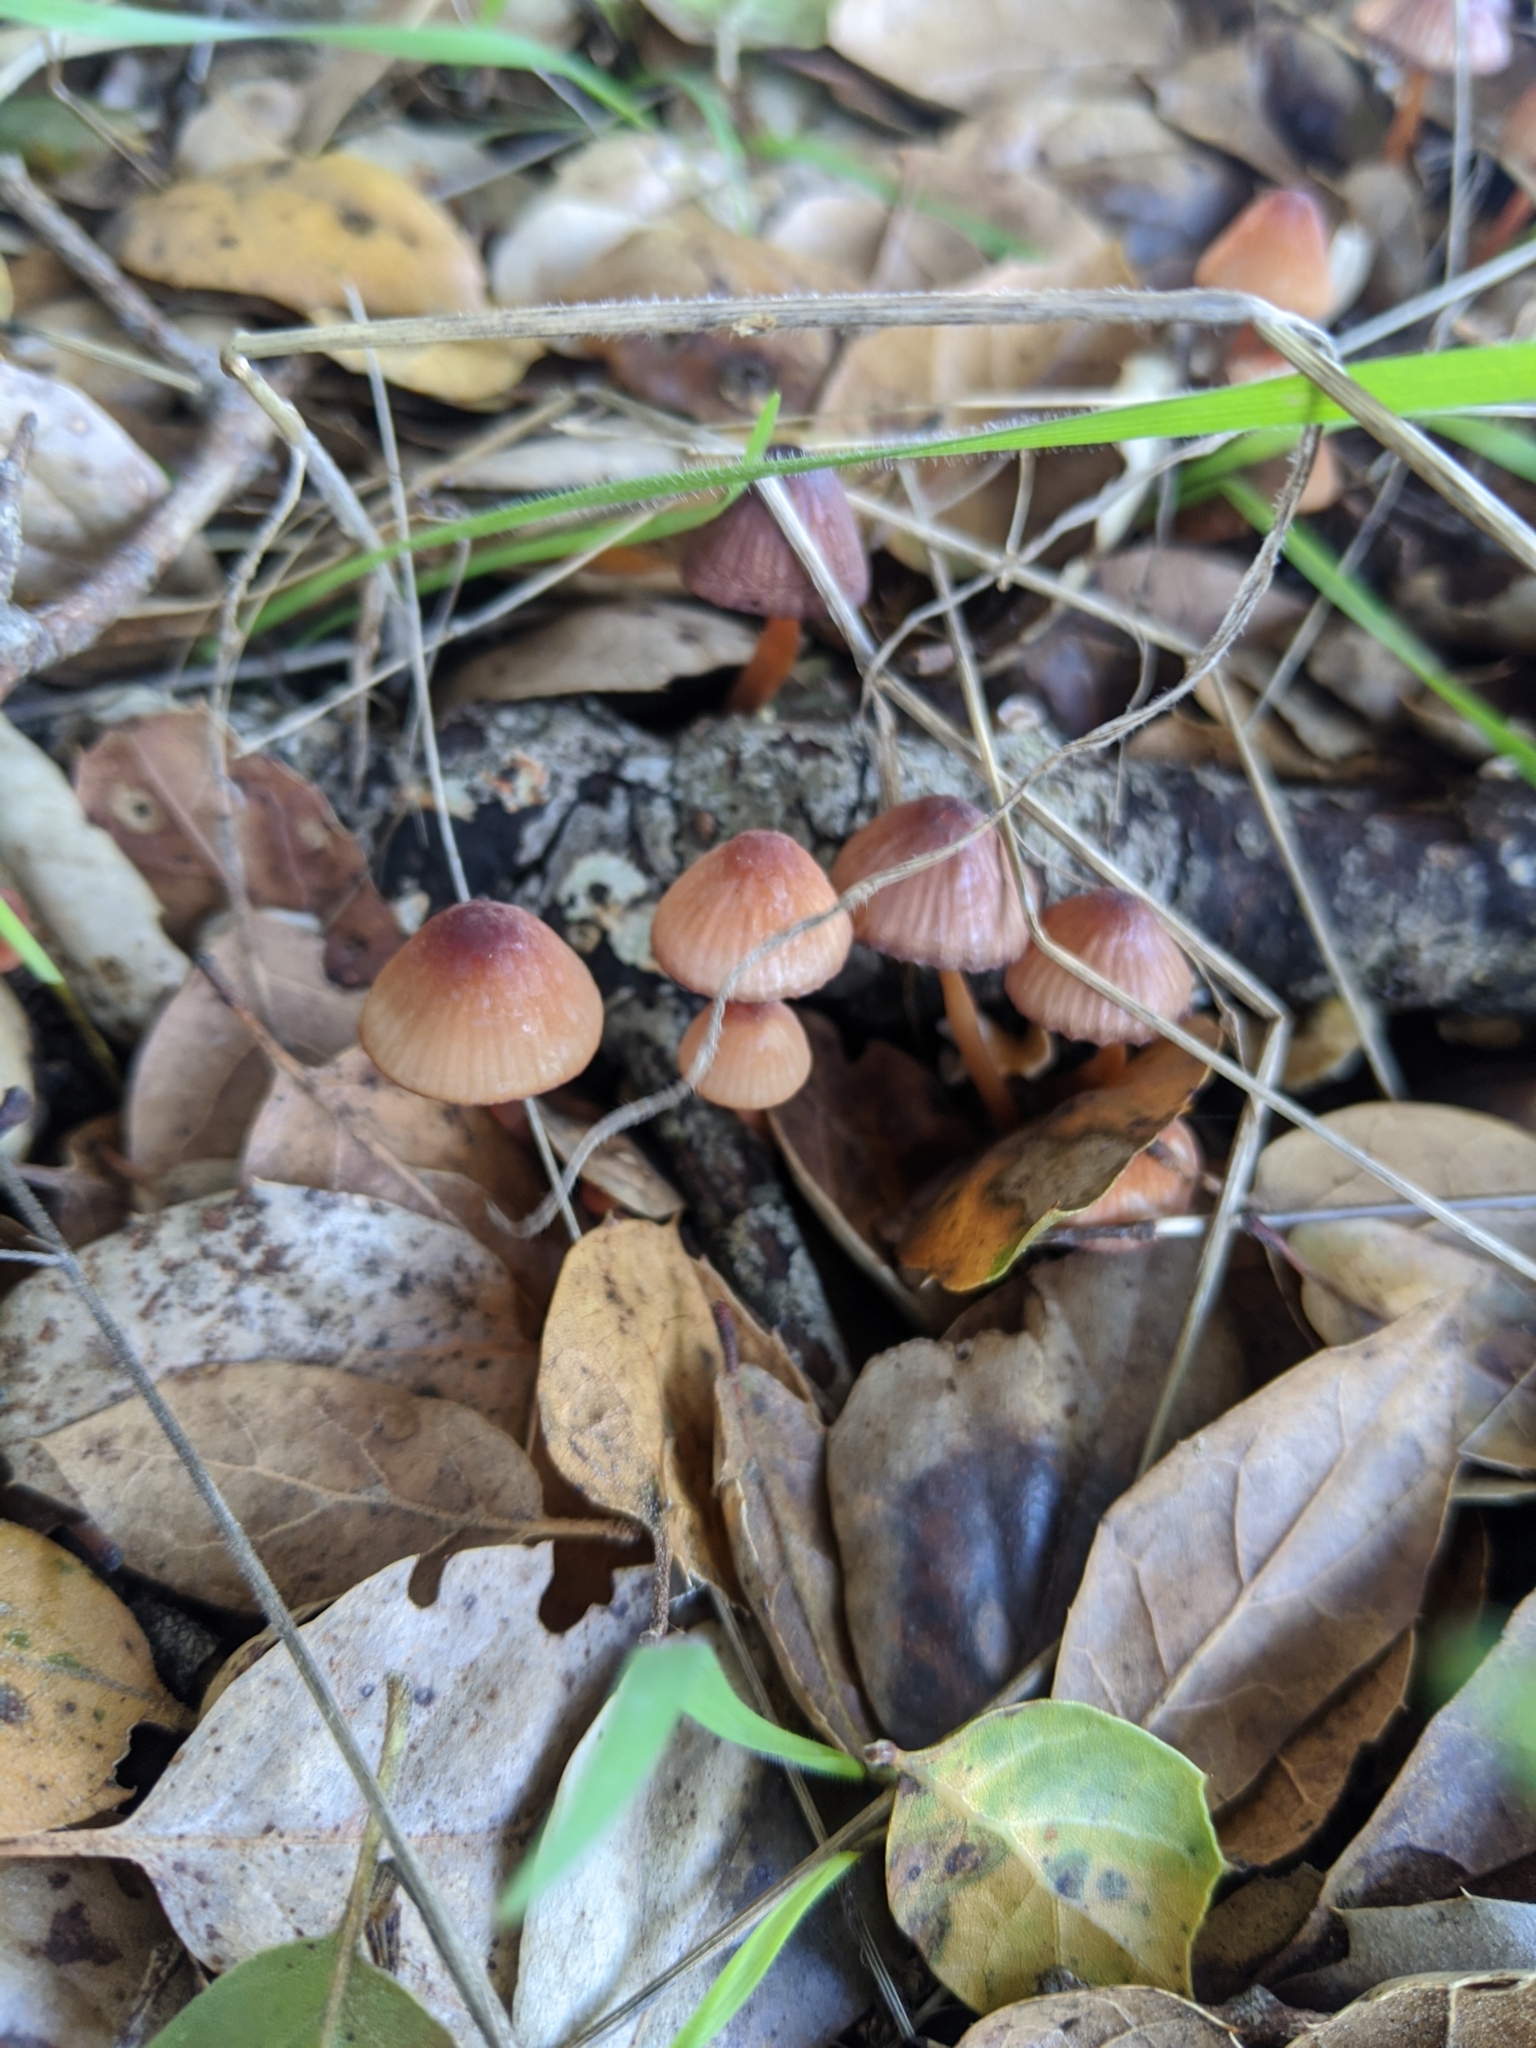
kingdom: Fungi
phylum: Basidiomycota
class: Agaricomycetes
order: Agaricales
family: Mycenaceae
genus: Mycena
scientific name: Mycena
